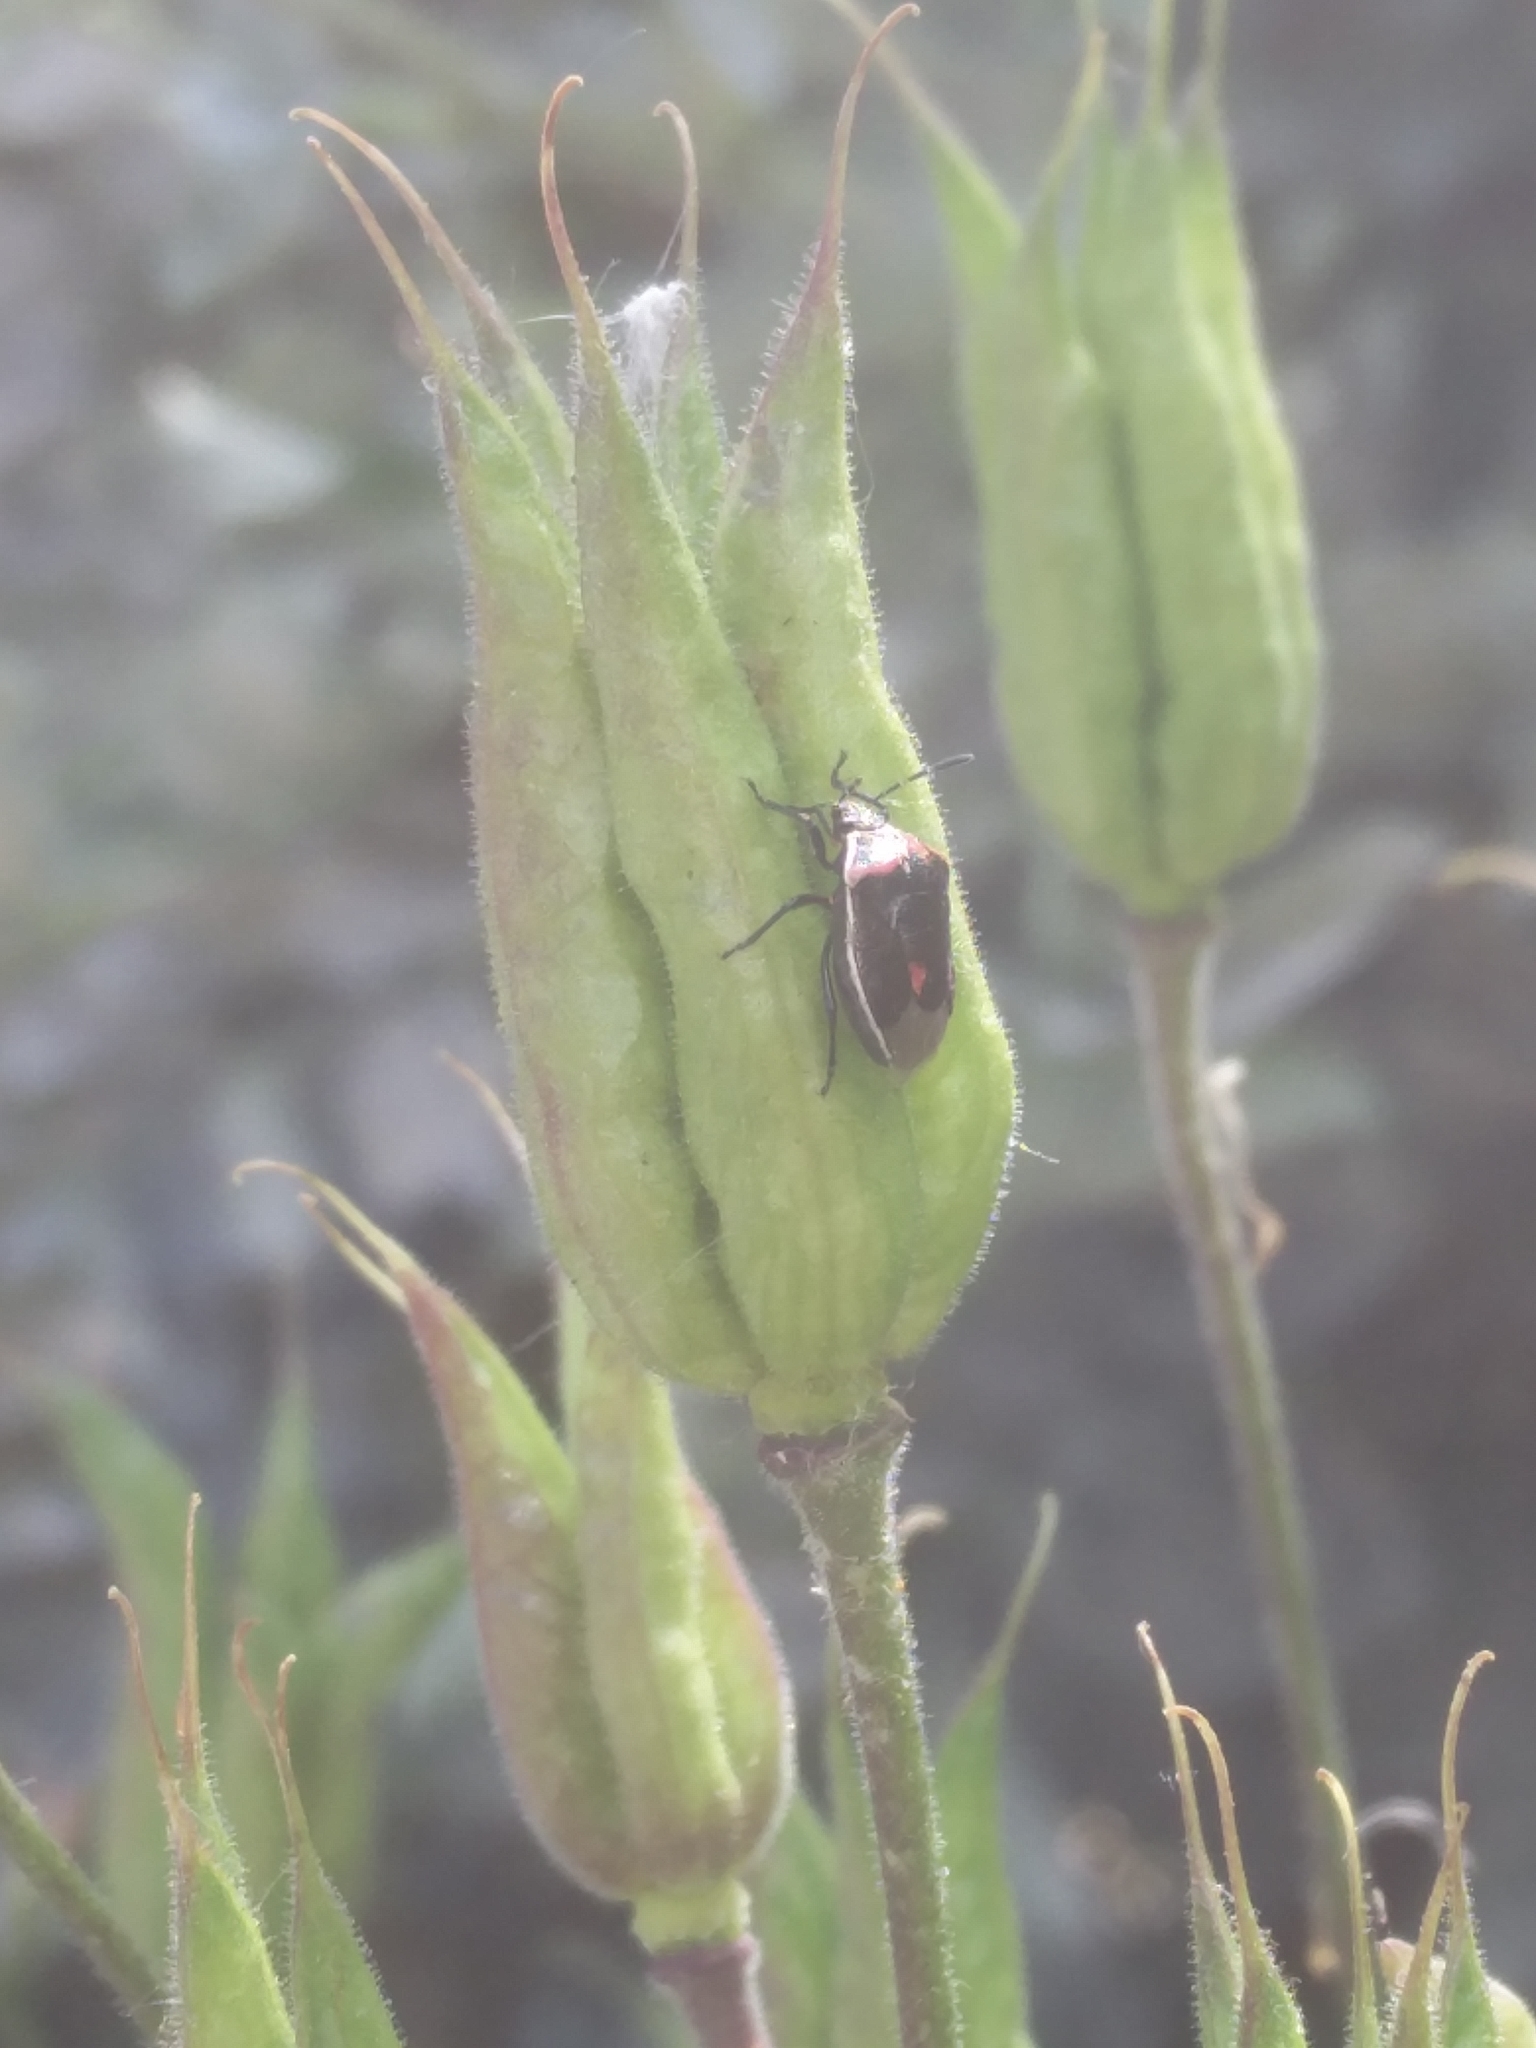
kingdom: Animalia
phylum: Arthropoda
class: Insecta
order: Hemiptera
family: Pentatomidae
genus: Cosmopepla
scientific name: Cosmopepla lintneriana
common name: Twice-stabbed stink bug
